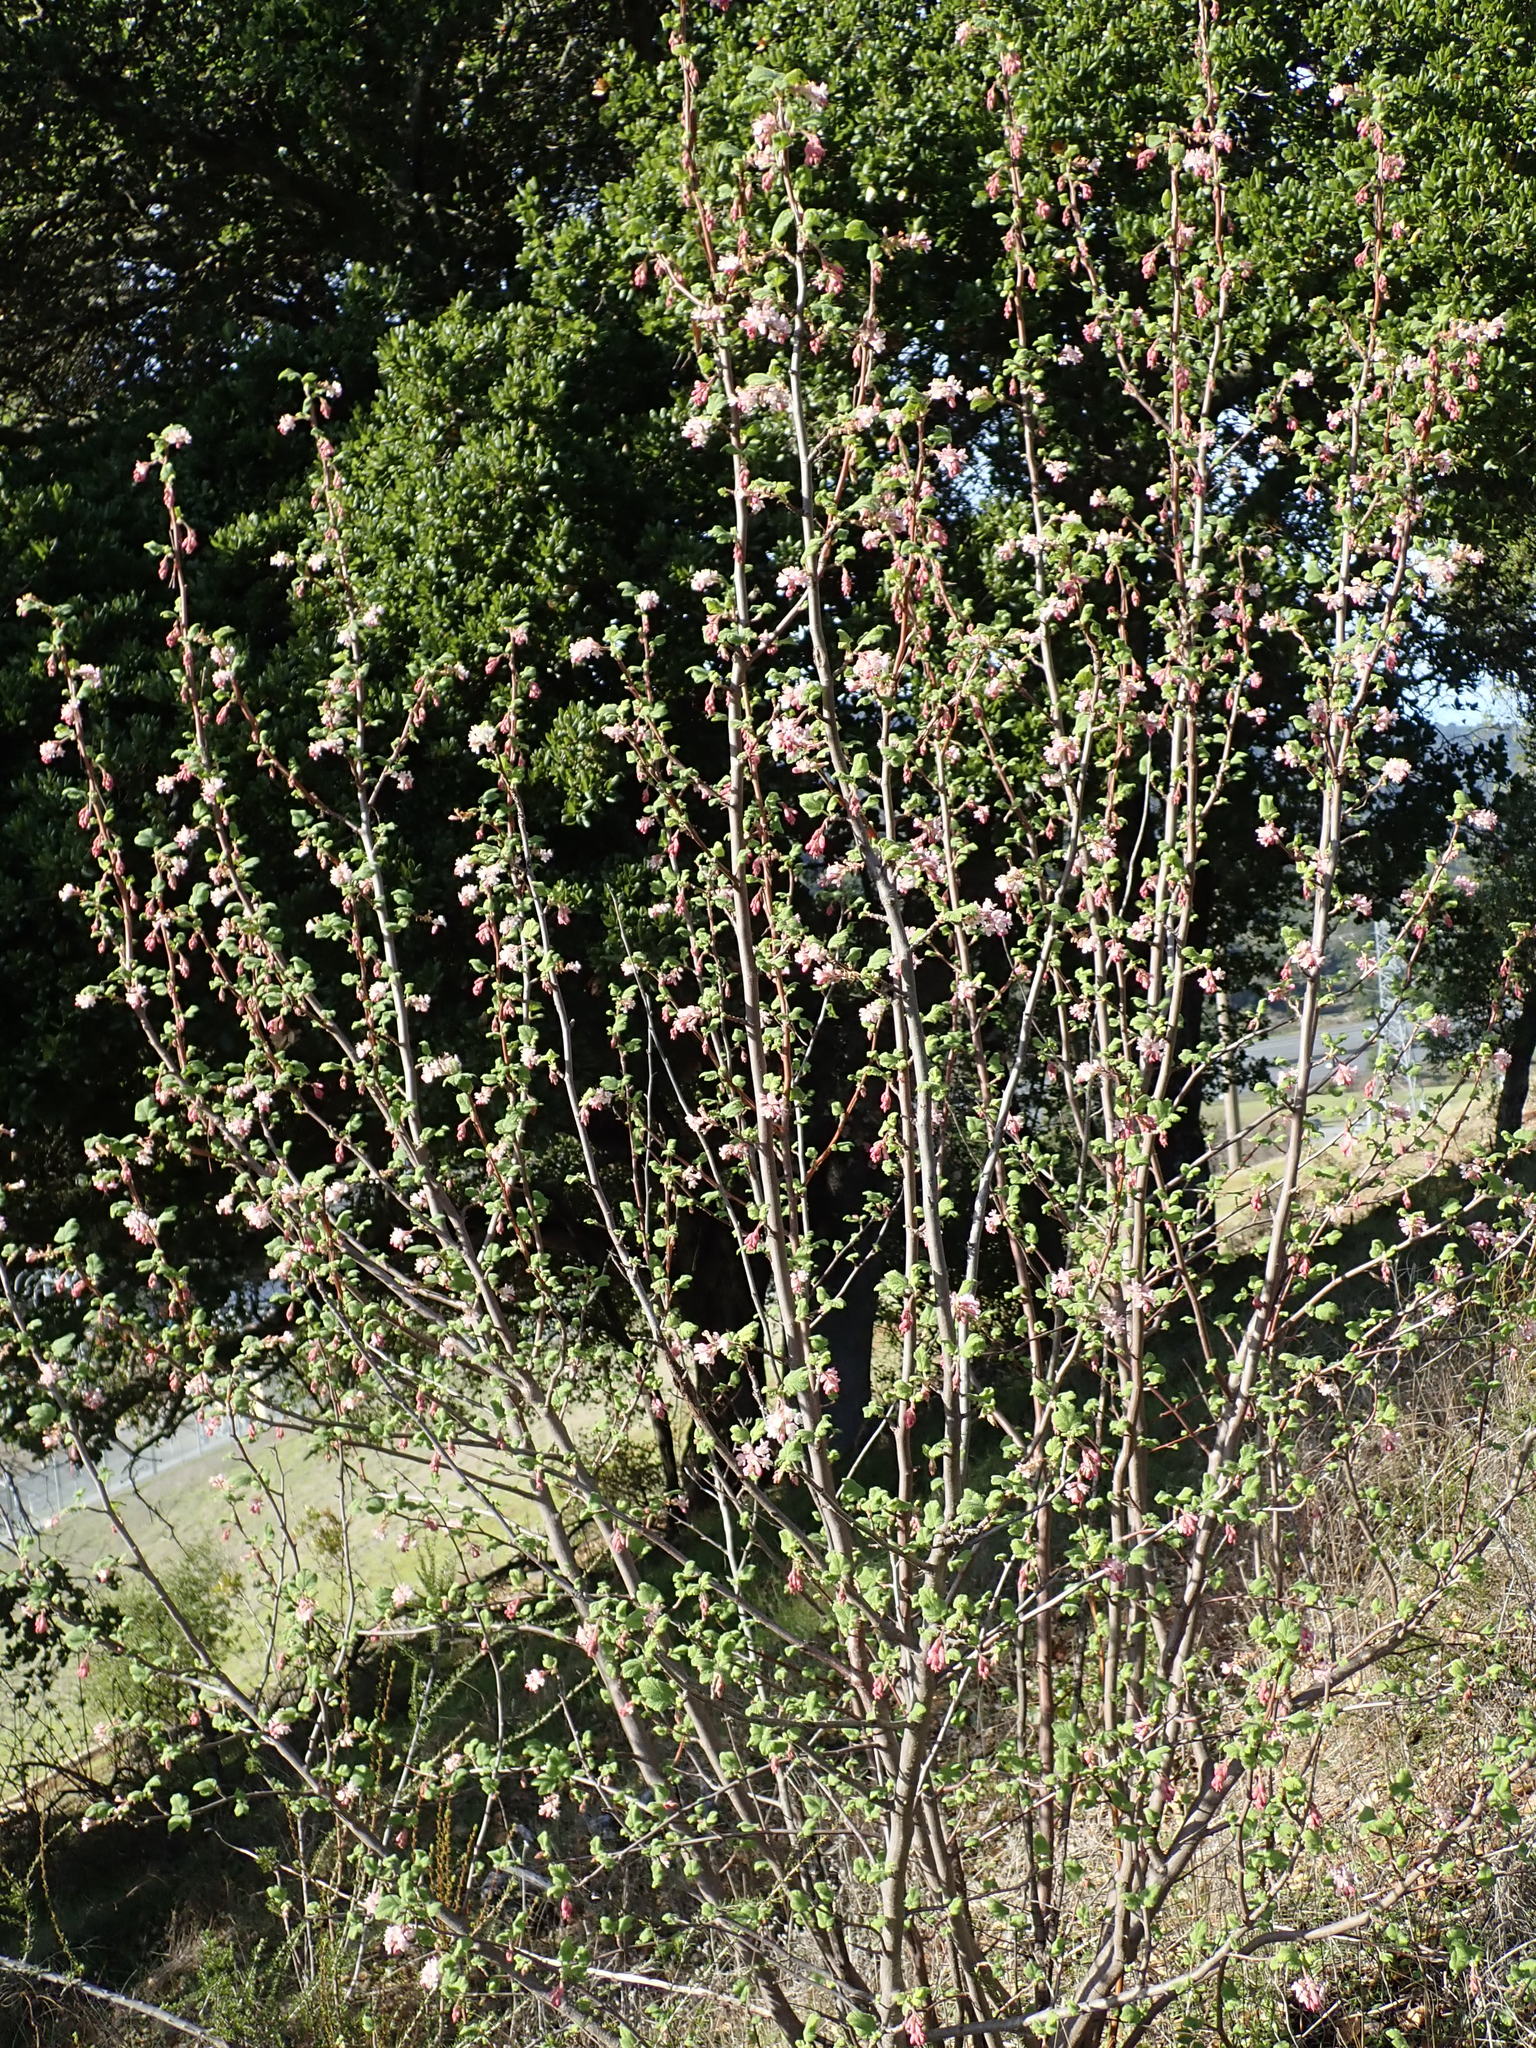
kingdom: Plantae
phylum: Tracheophyta
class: Magnoliopsida
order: Saxifragales
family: Grossulariaceae
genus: Ribes
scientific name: Ribes malvaceum
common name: Chaparral currant
